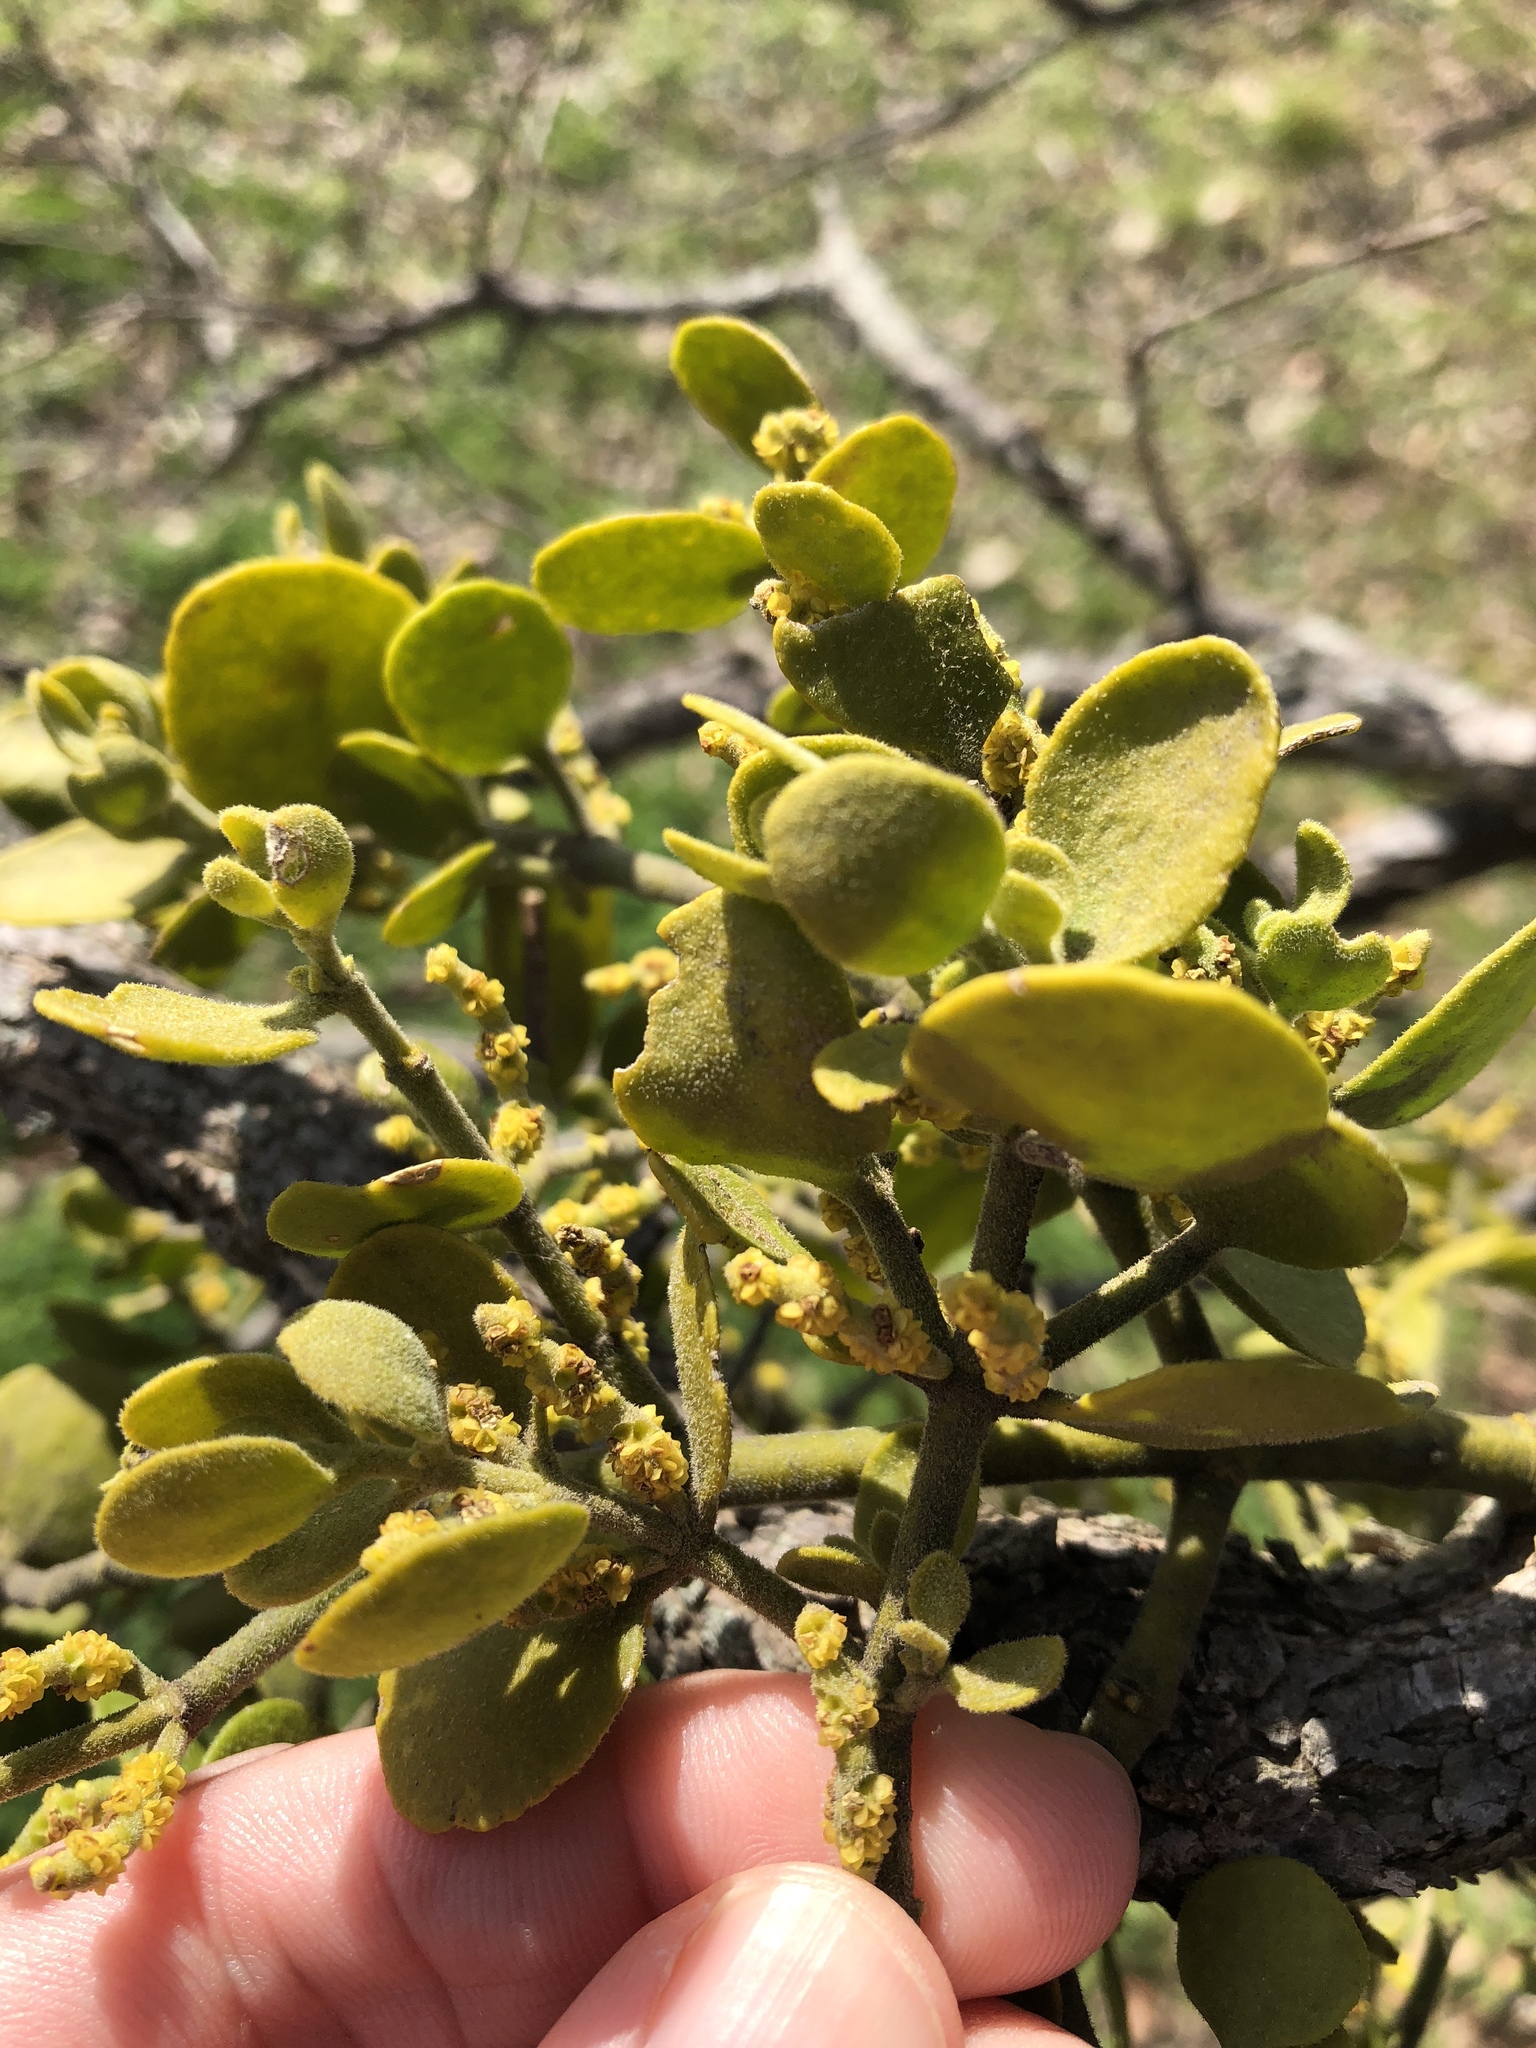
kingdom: Plantae
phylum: Tracheophyta
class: Magnoliopsida
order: Santalales
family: Viscaceae
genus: Phoradendron
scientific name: Phoradendron leucarpum
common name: Pacific mistletoe
